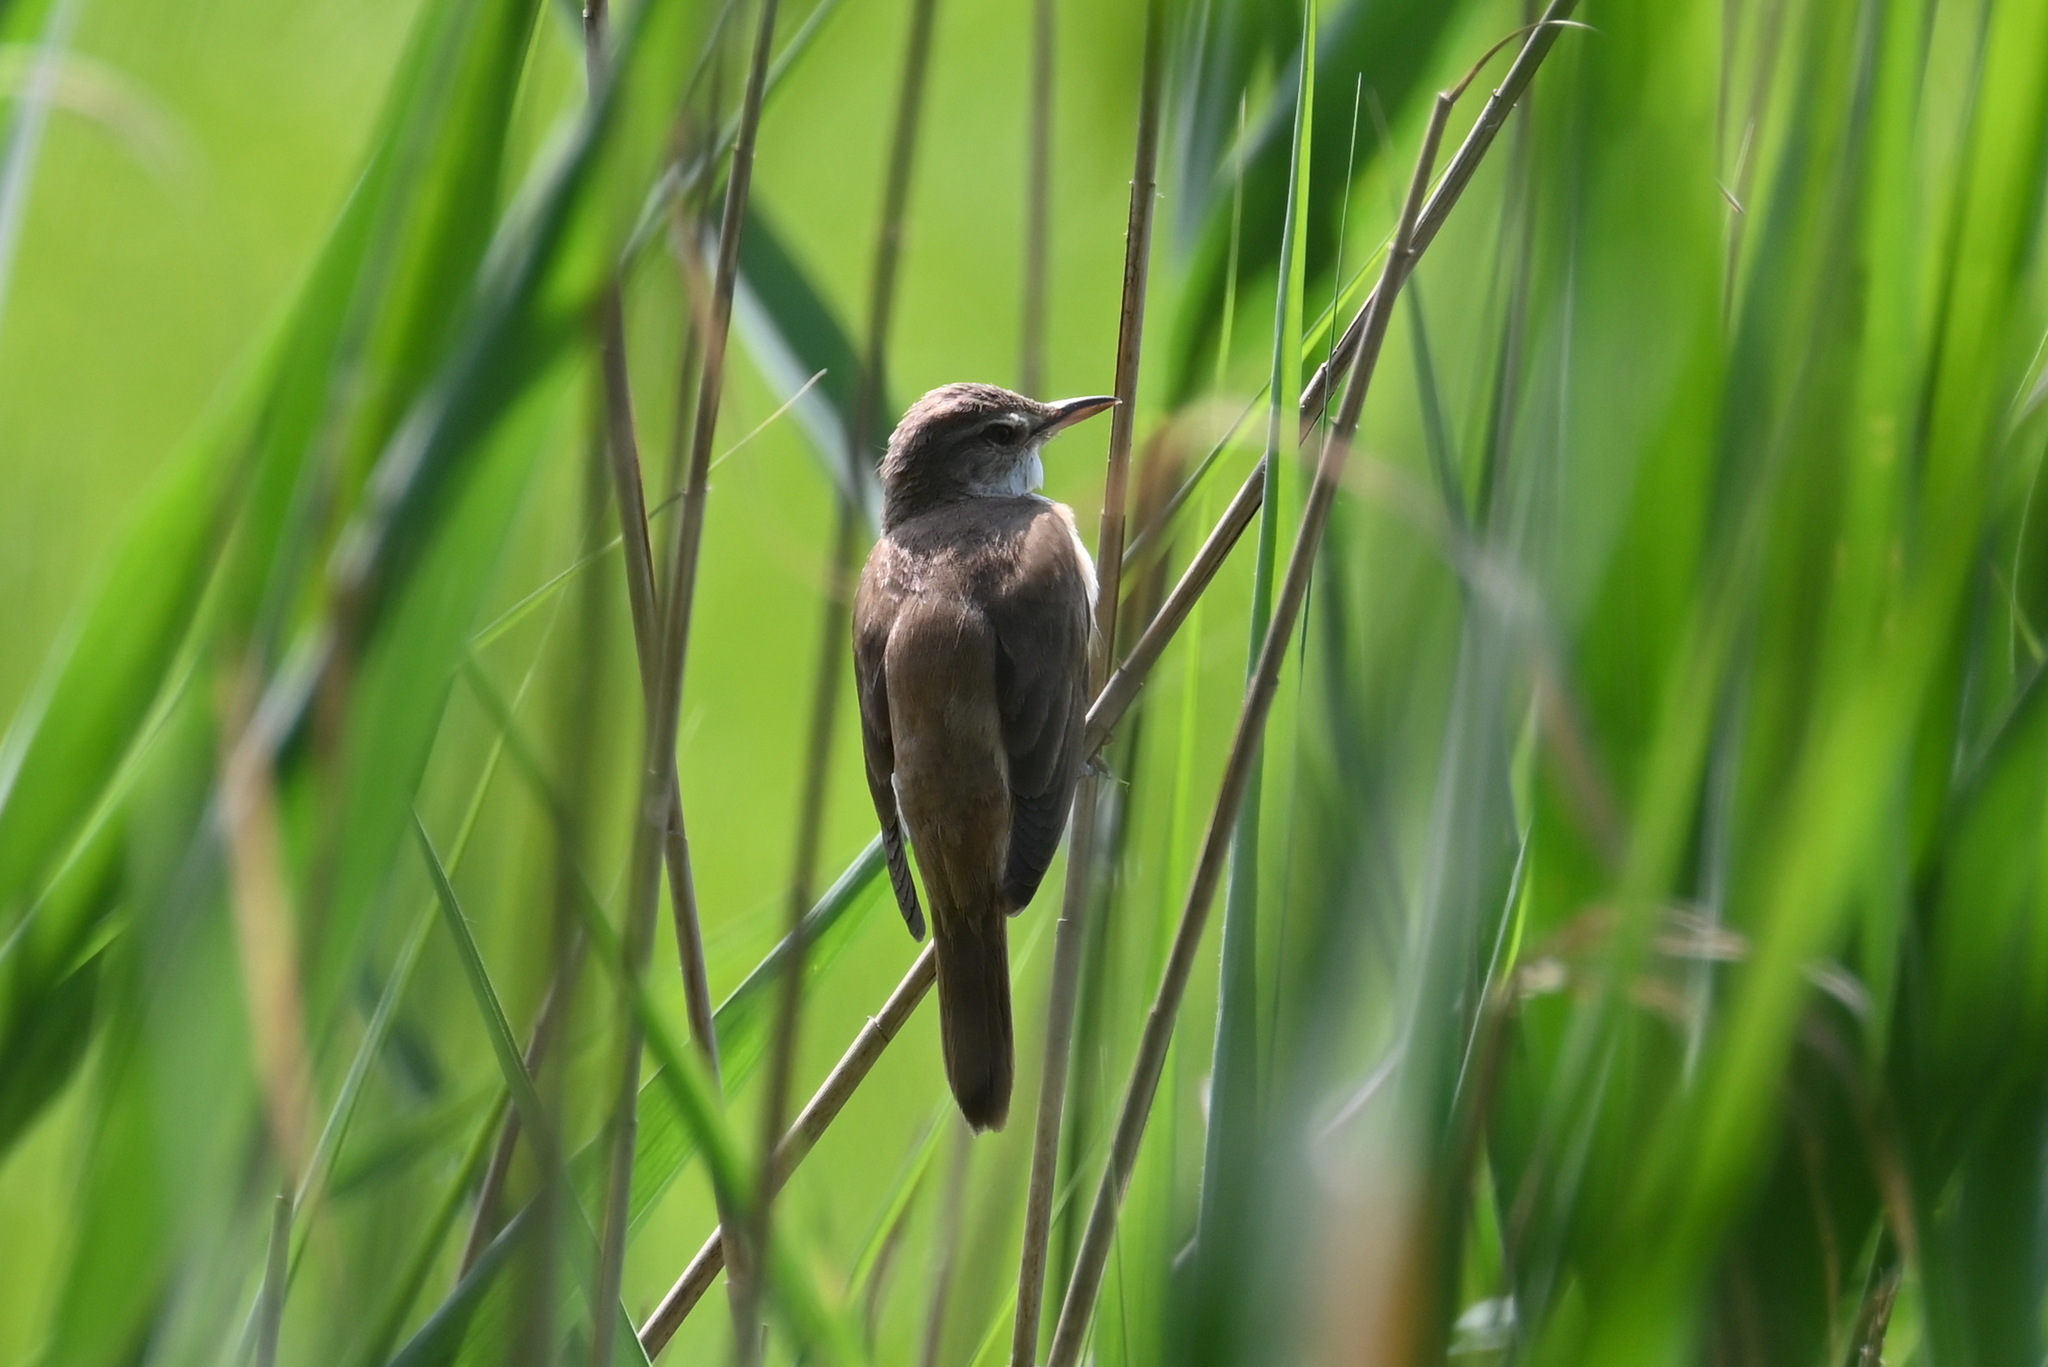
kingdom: Animalia
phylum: Chordata
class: Aves
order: Passeriformes
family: Acrocephalidae
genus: Acrocephalus
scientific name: Acrocephalus arundinaceus
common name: Great reed warbler
